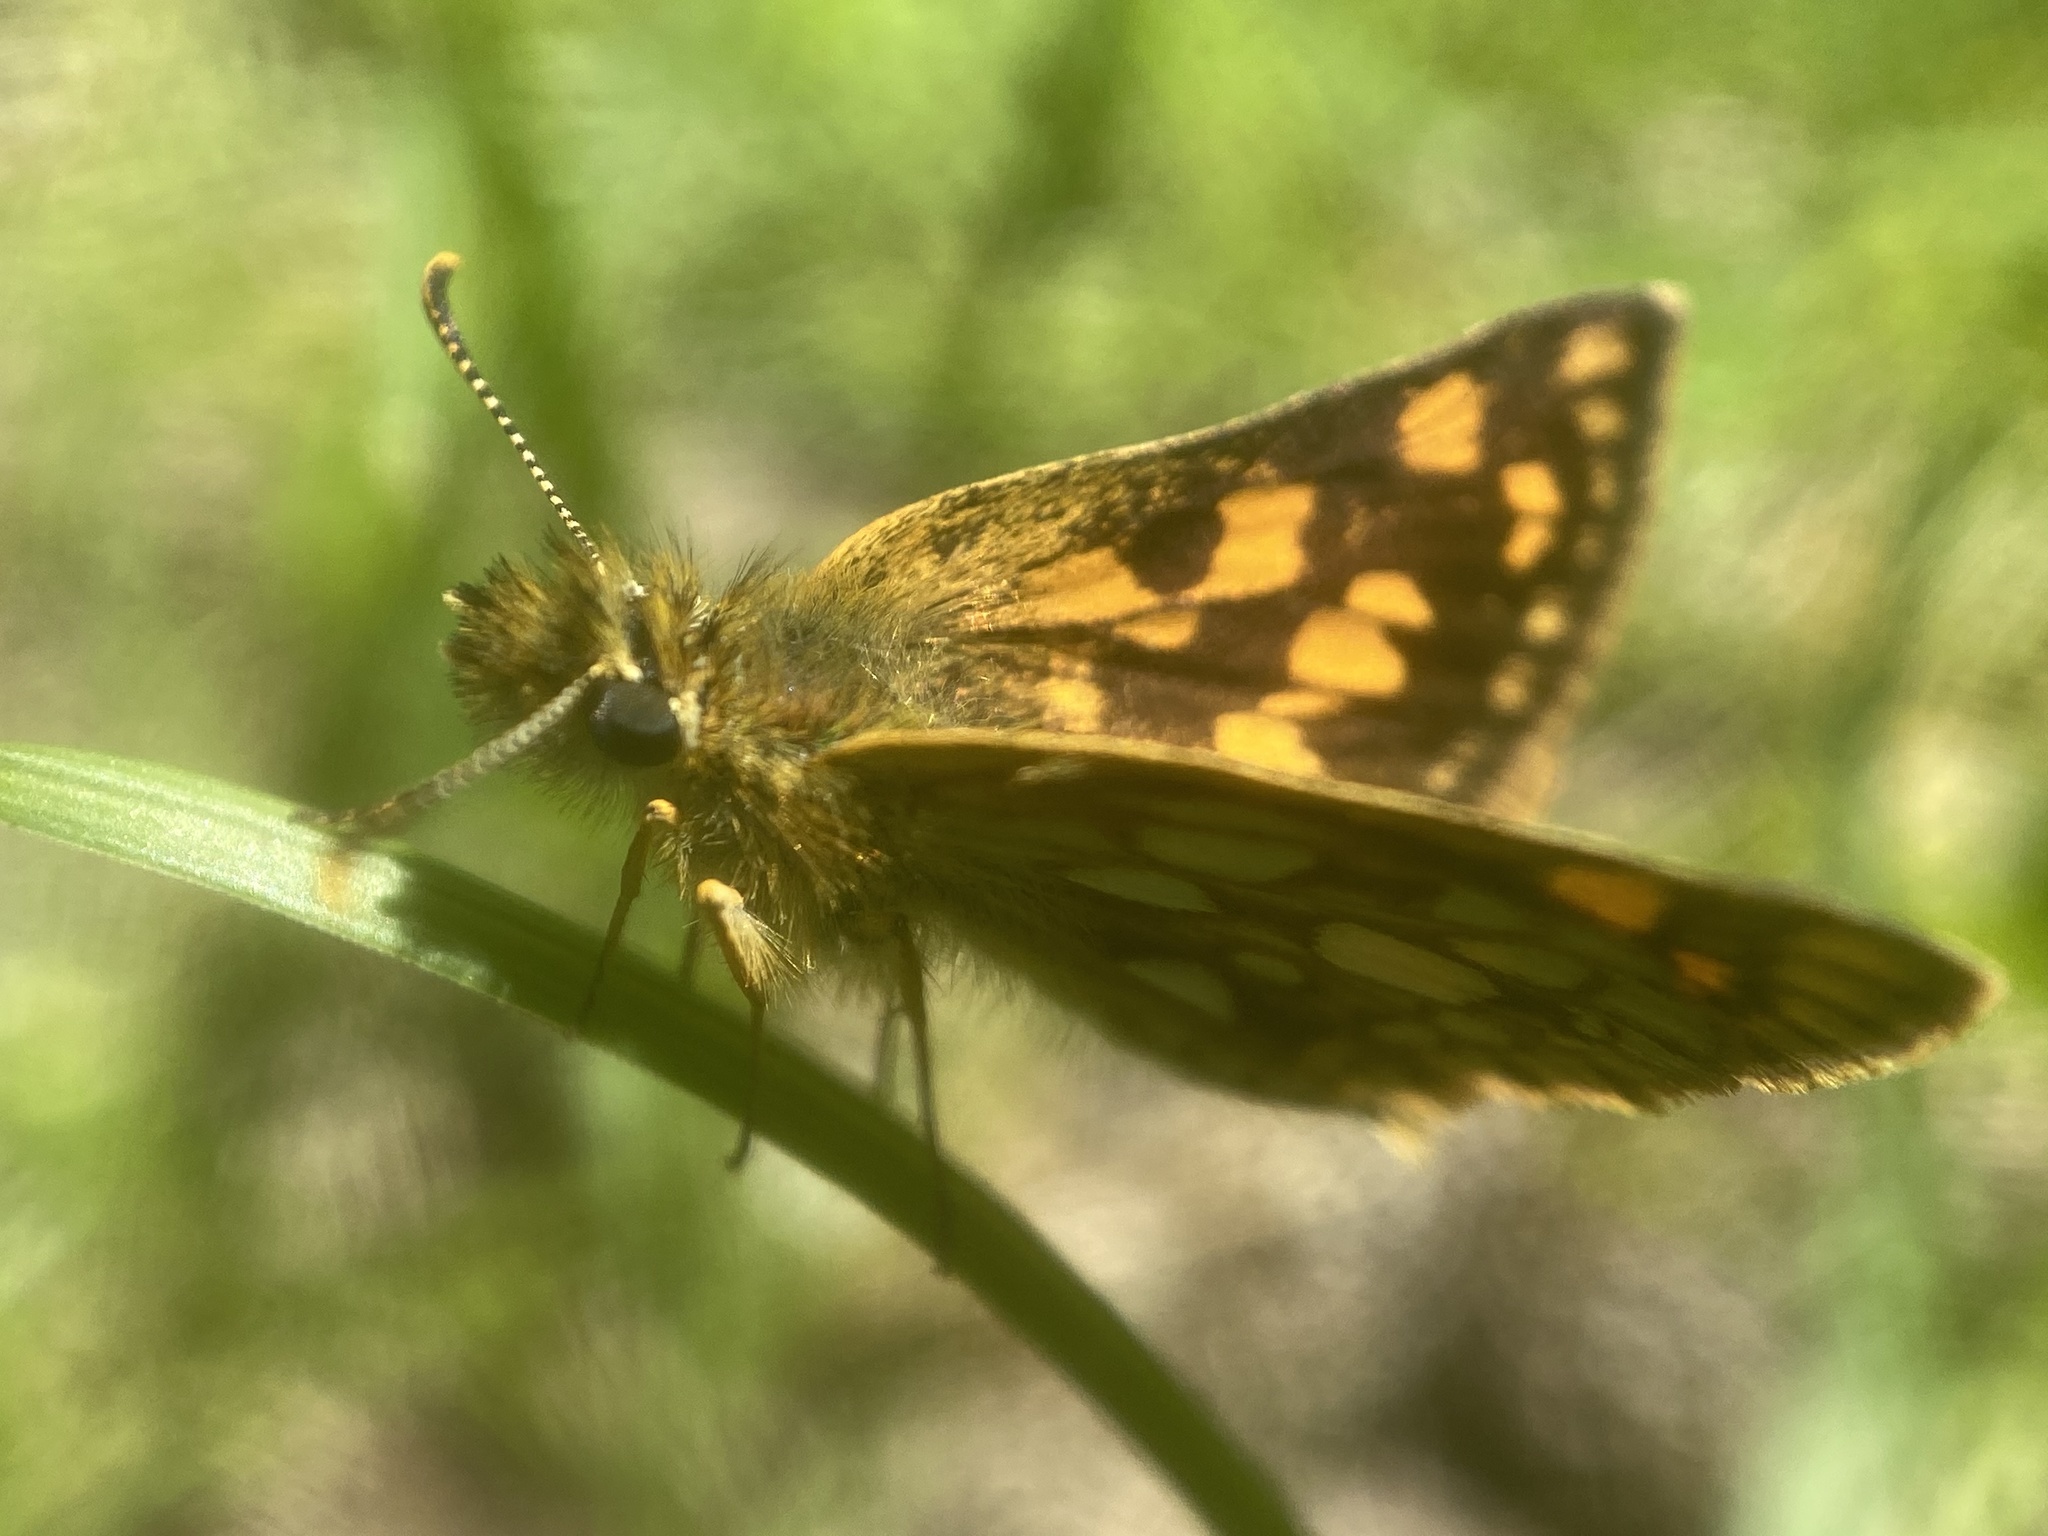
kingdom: Animalia
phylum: Arthropoda
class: Insecta
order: Lepidoptera
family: Hesperiidae
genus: Carterocephalus
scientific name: Carterocephalus mandan
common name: Arctic skipperling
